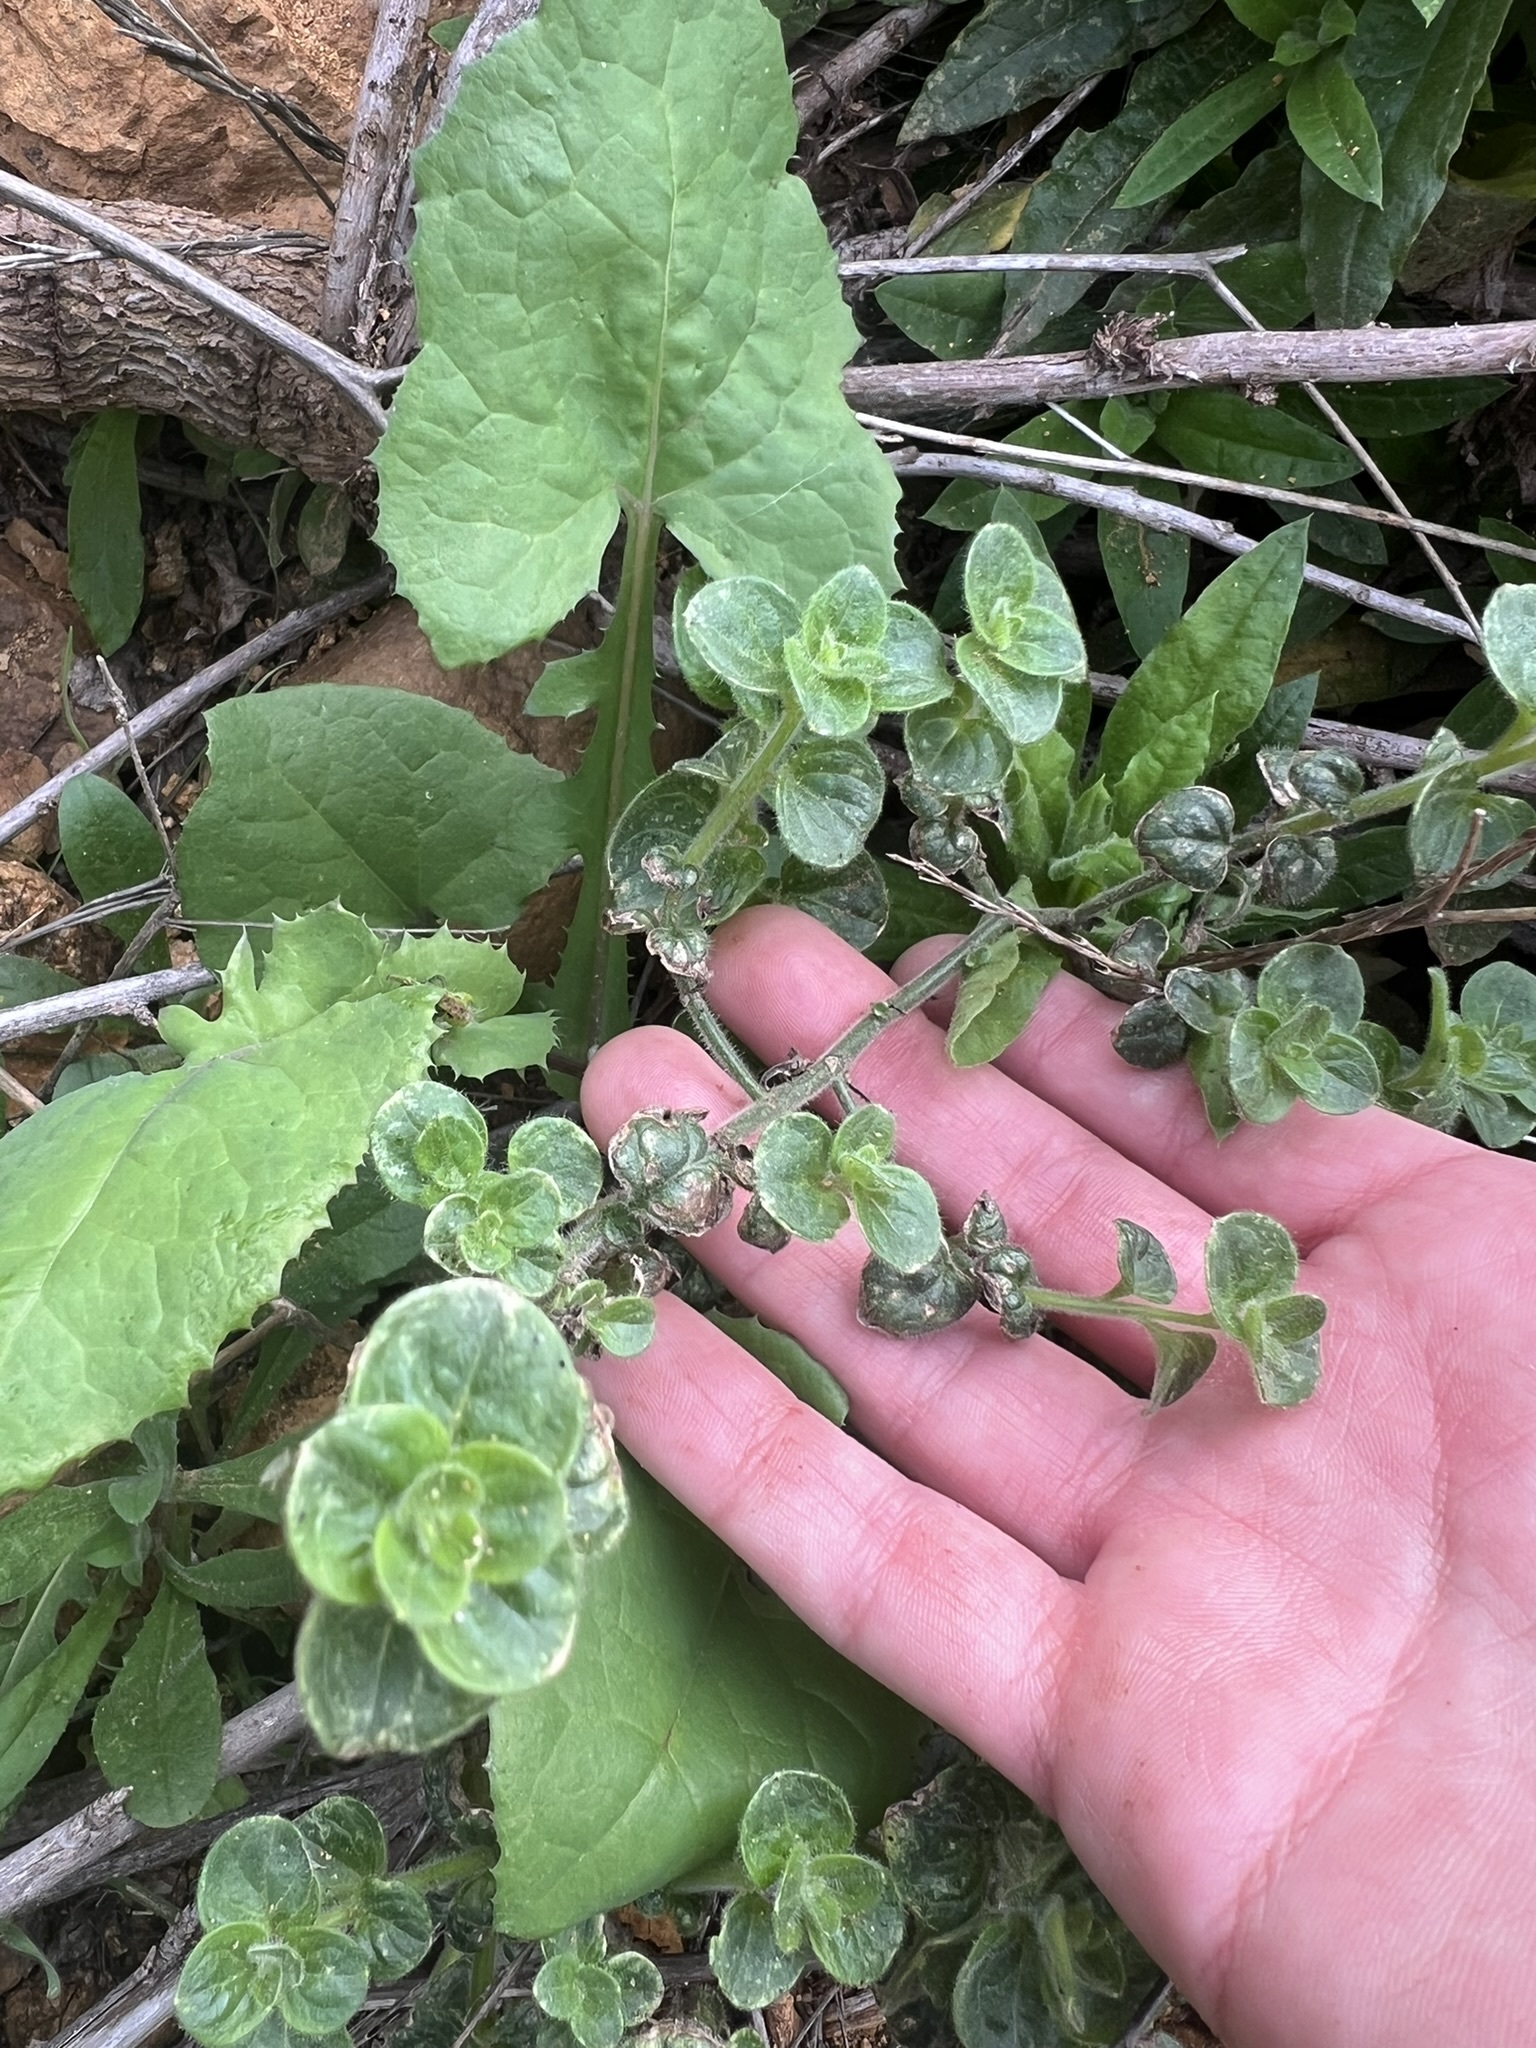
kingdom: Plantae
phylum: Tracheophyta
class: Magnoliopsida
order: Lamiales
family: Plantaginaceae
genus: Sairocarpus
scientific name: Sairocarpus nuttallianus
